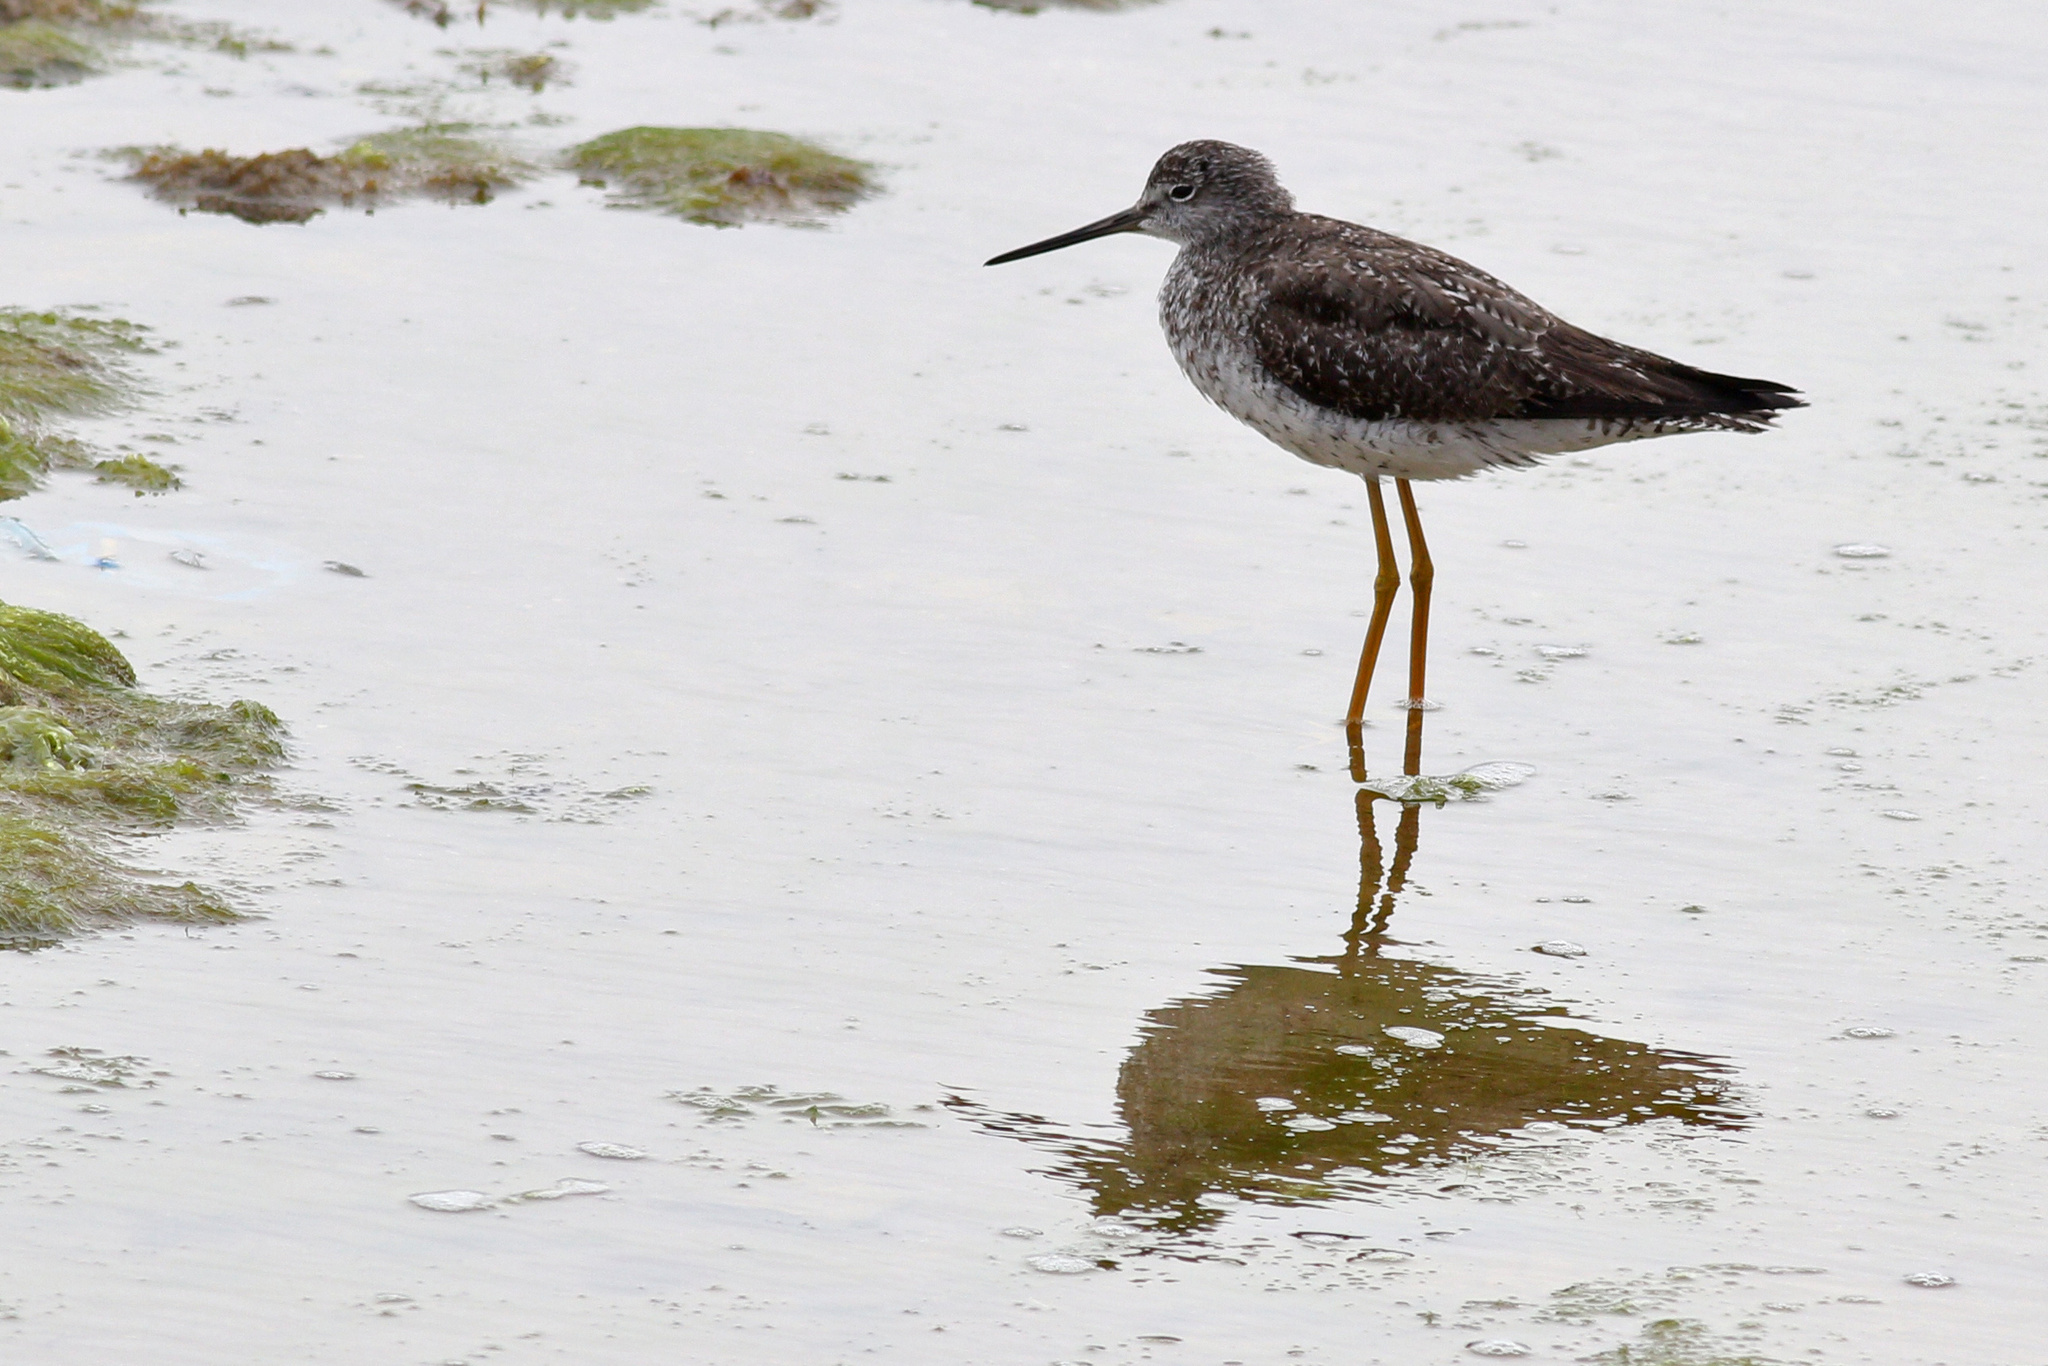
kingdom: Animalia
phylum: Chordata
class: Aves
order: Charadriiformes
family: Scolopacidae
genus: Tringa
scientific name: Tringa melanoleuca
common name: Greater yellowlegs
